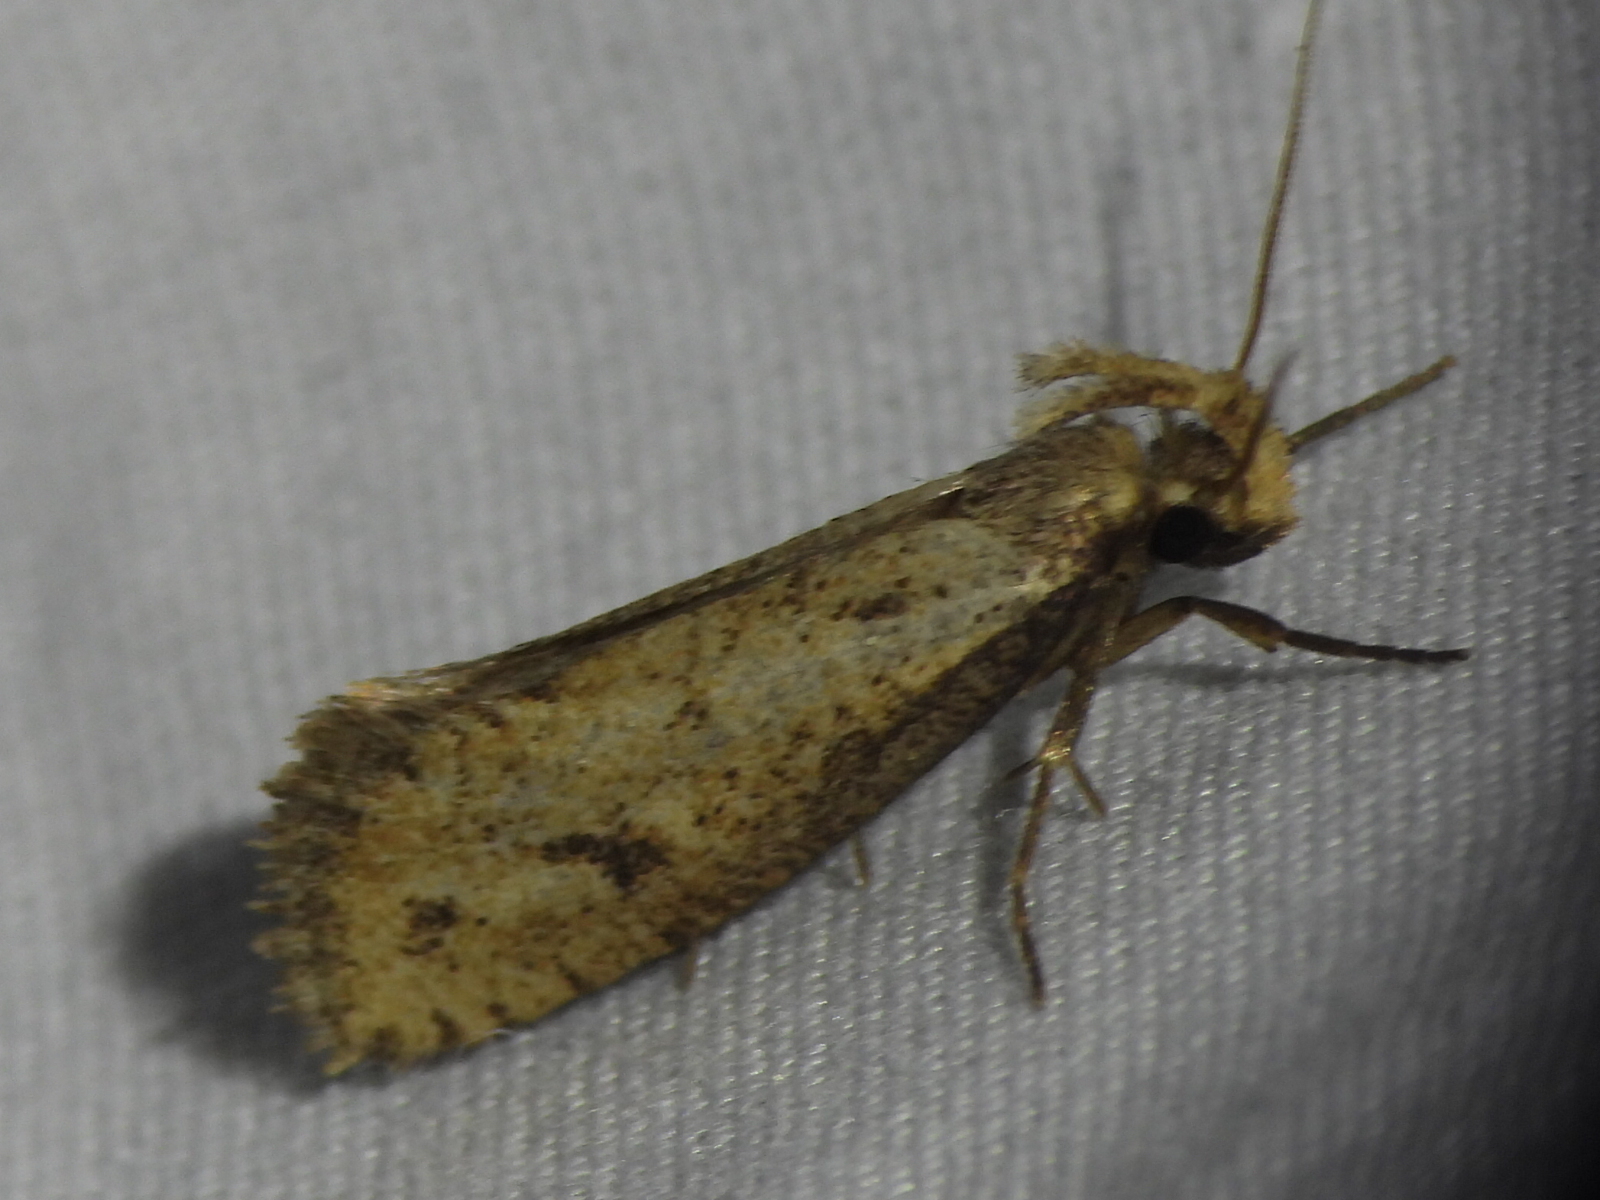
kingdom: Animalia
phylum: Arthropoda
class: Insecta
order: Lepidoptera
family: Tineidae
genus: Acrolophus
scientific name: Acrolophus mortipennella
